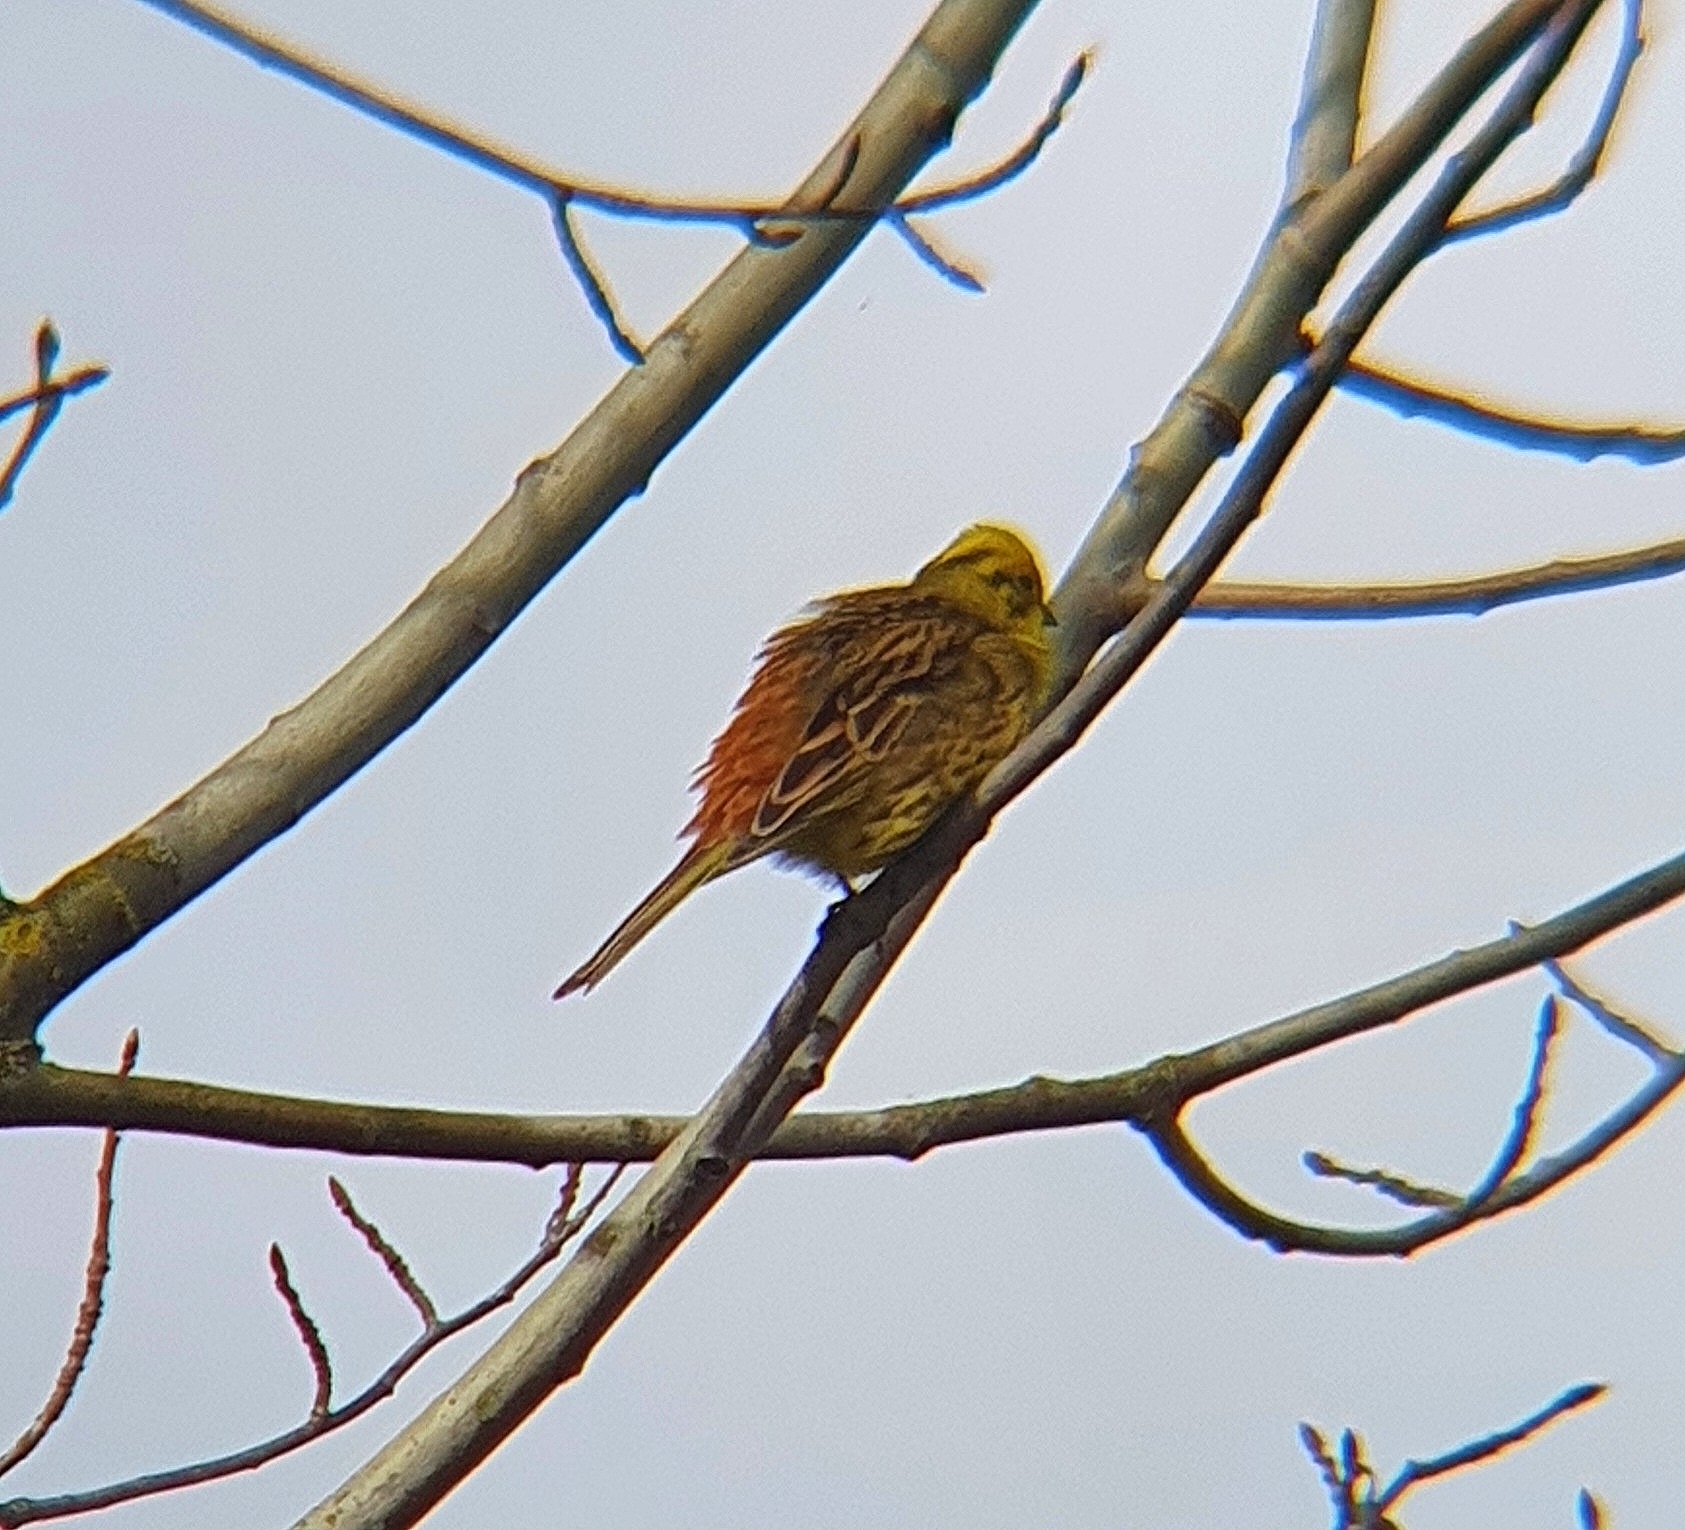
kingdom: Animalia
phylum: Chordata
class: Aves
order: Passeriformes
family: Emberizidae
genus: Emberiza
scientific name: Emberiza citrinella
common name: Yellowhammer
